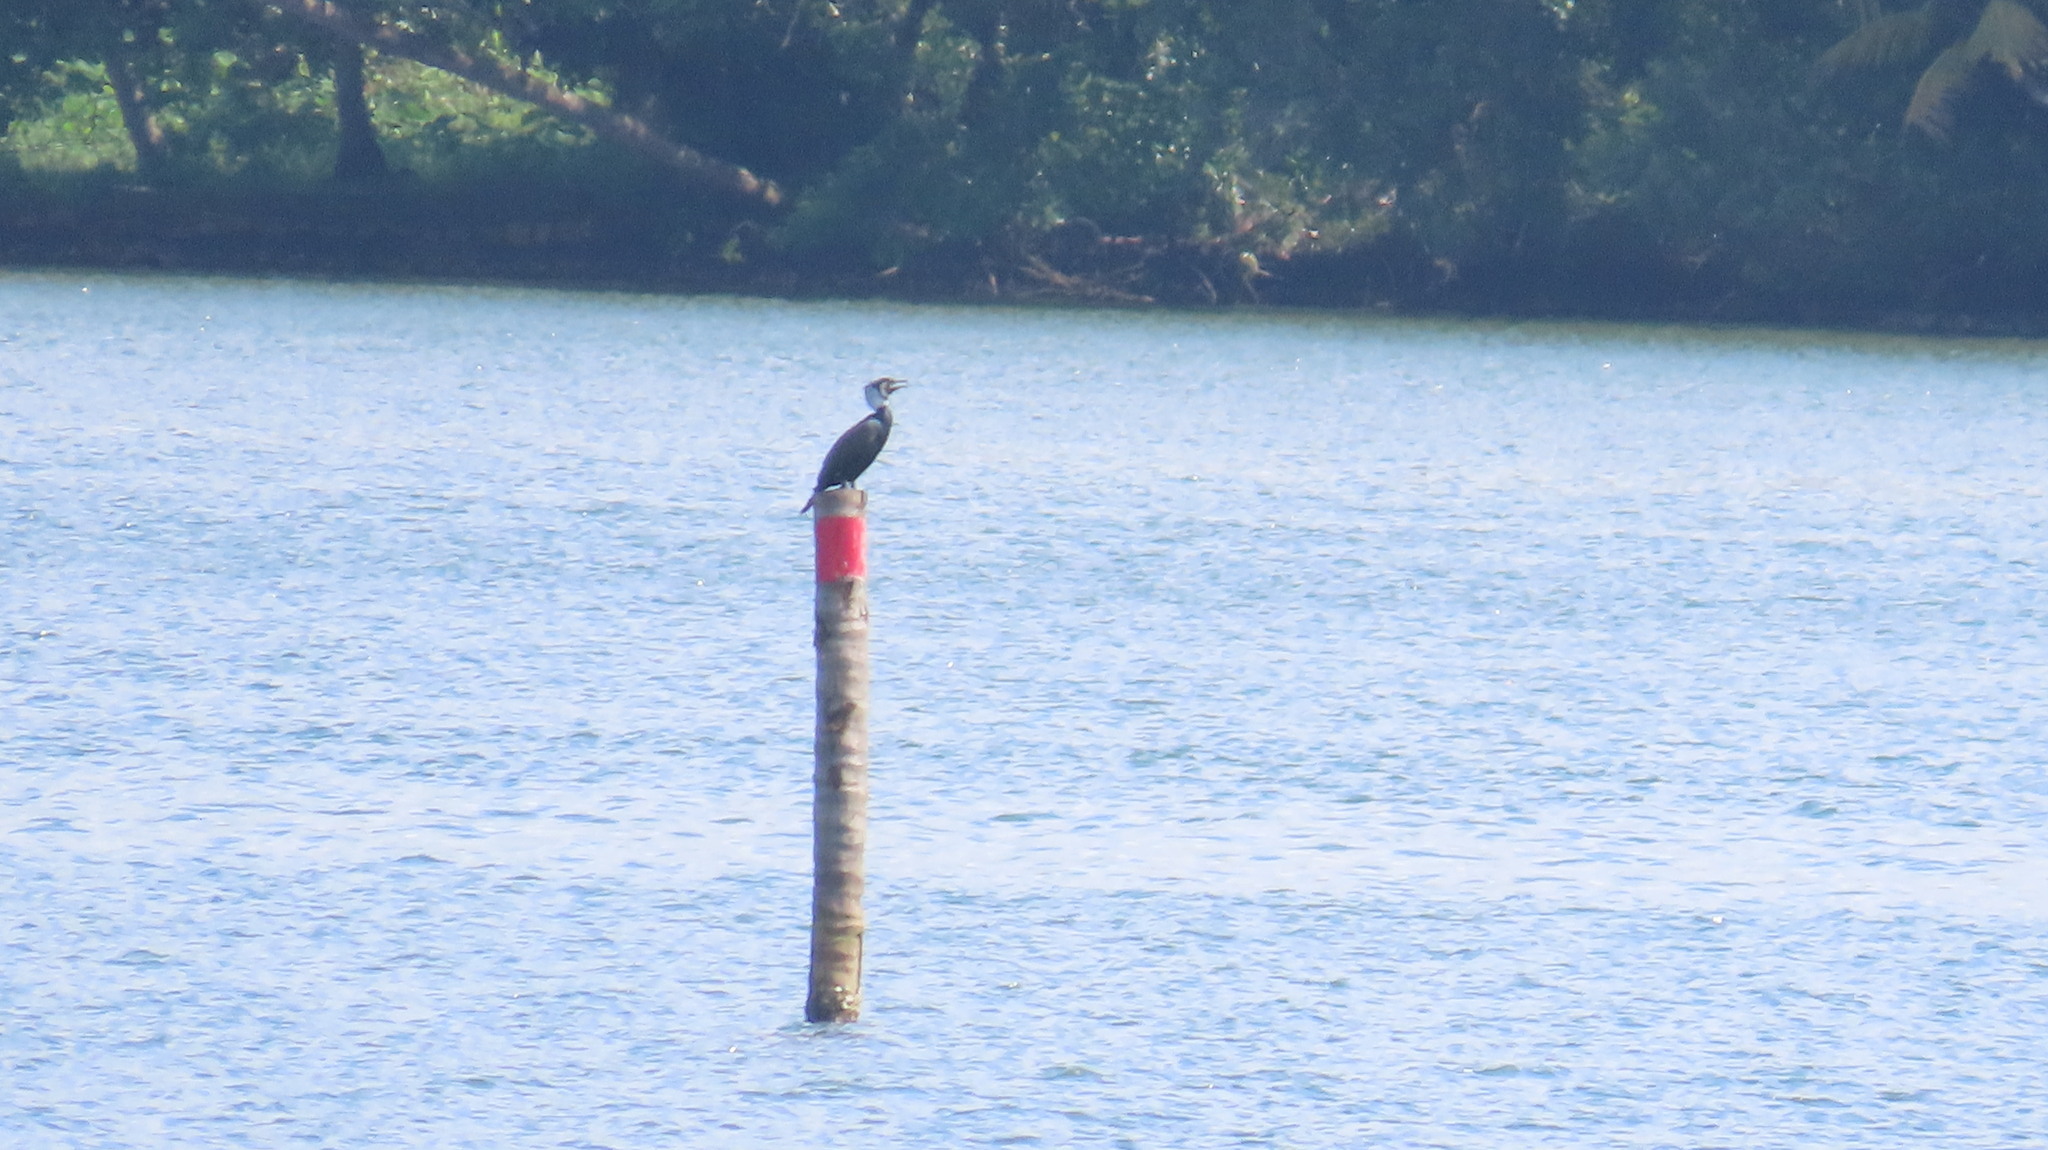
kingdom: Animalia
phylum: Chordata
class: Aves
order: Suliformes
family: Phalacrocoracidae
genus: Phalacrocorax
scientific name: Phalacrocorax carbo
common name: Great cormorant
